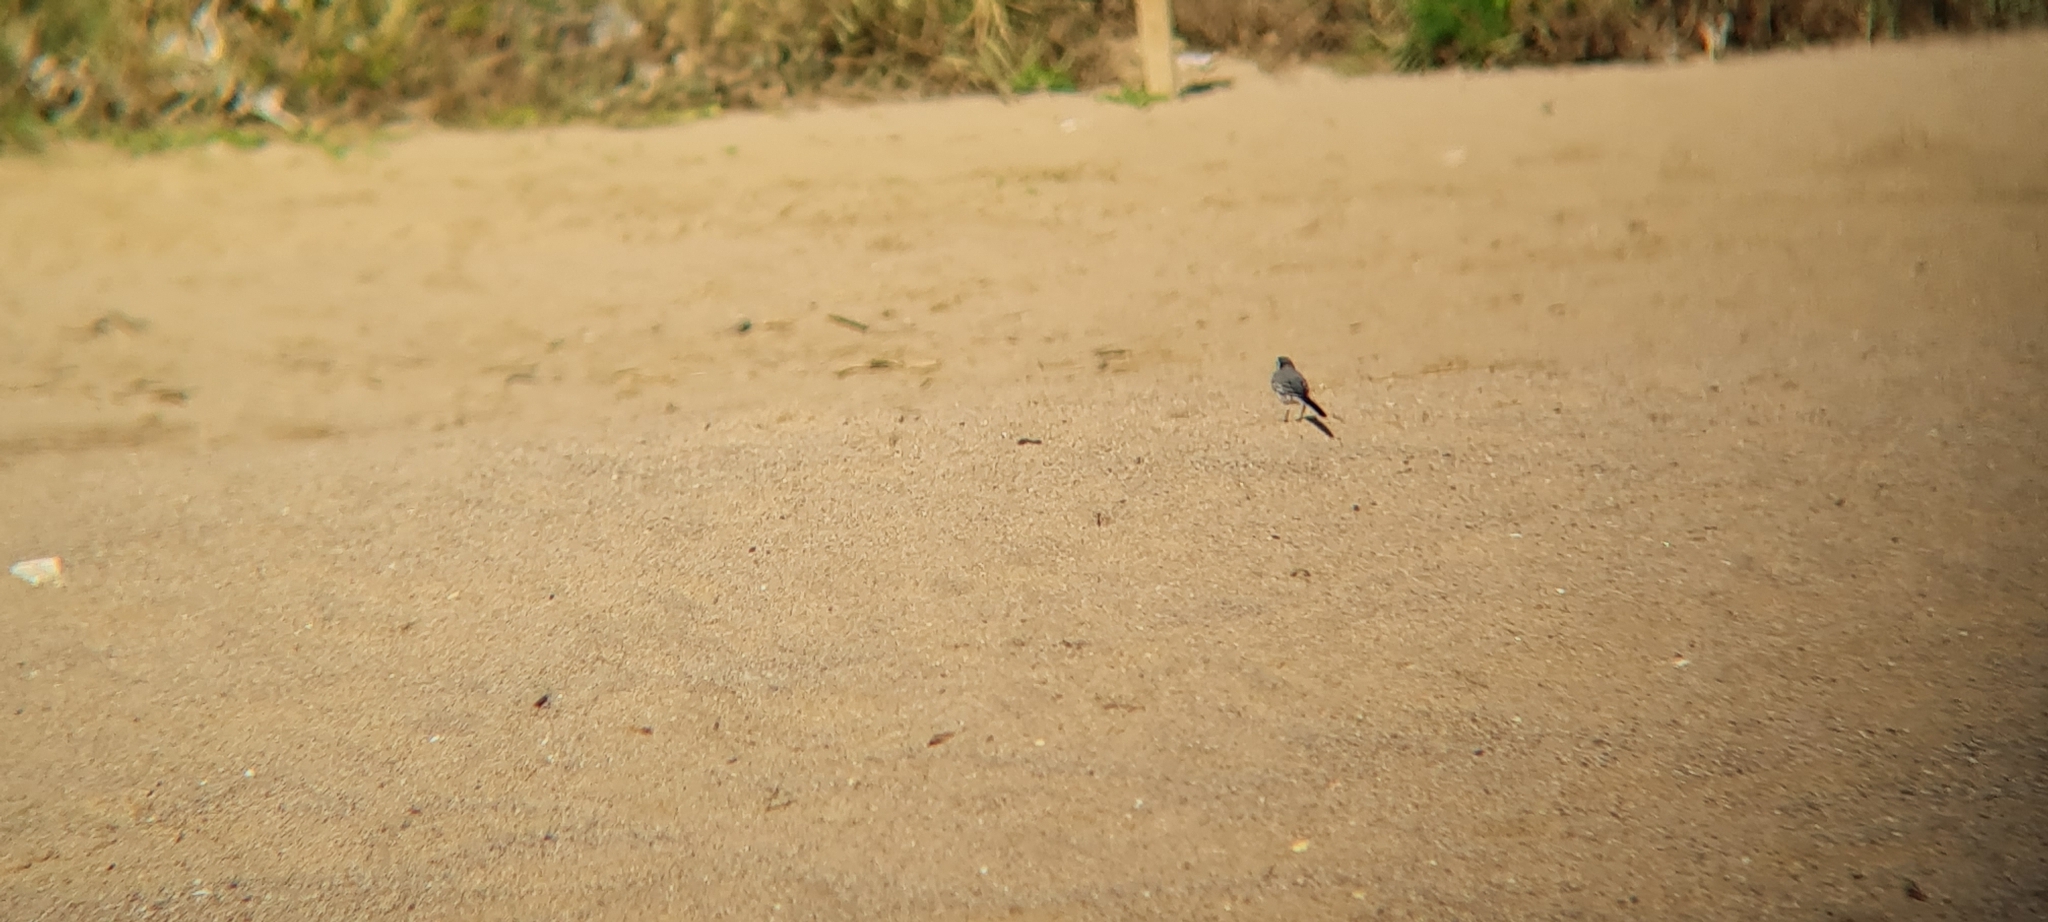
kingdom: Animalia
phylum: Chordata
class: Aves
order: Passeriformes
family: Motacillidae
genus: Motacilla
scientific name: Motacilla alba
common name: White wagtail
